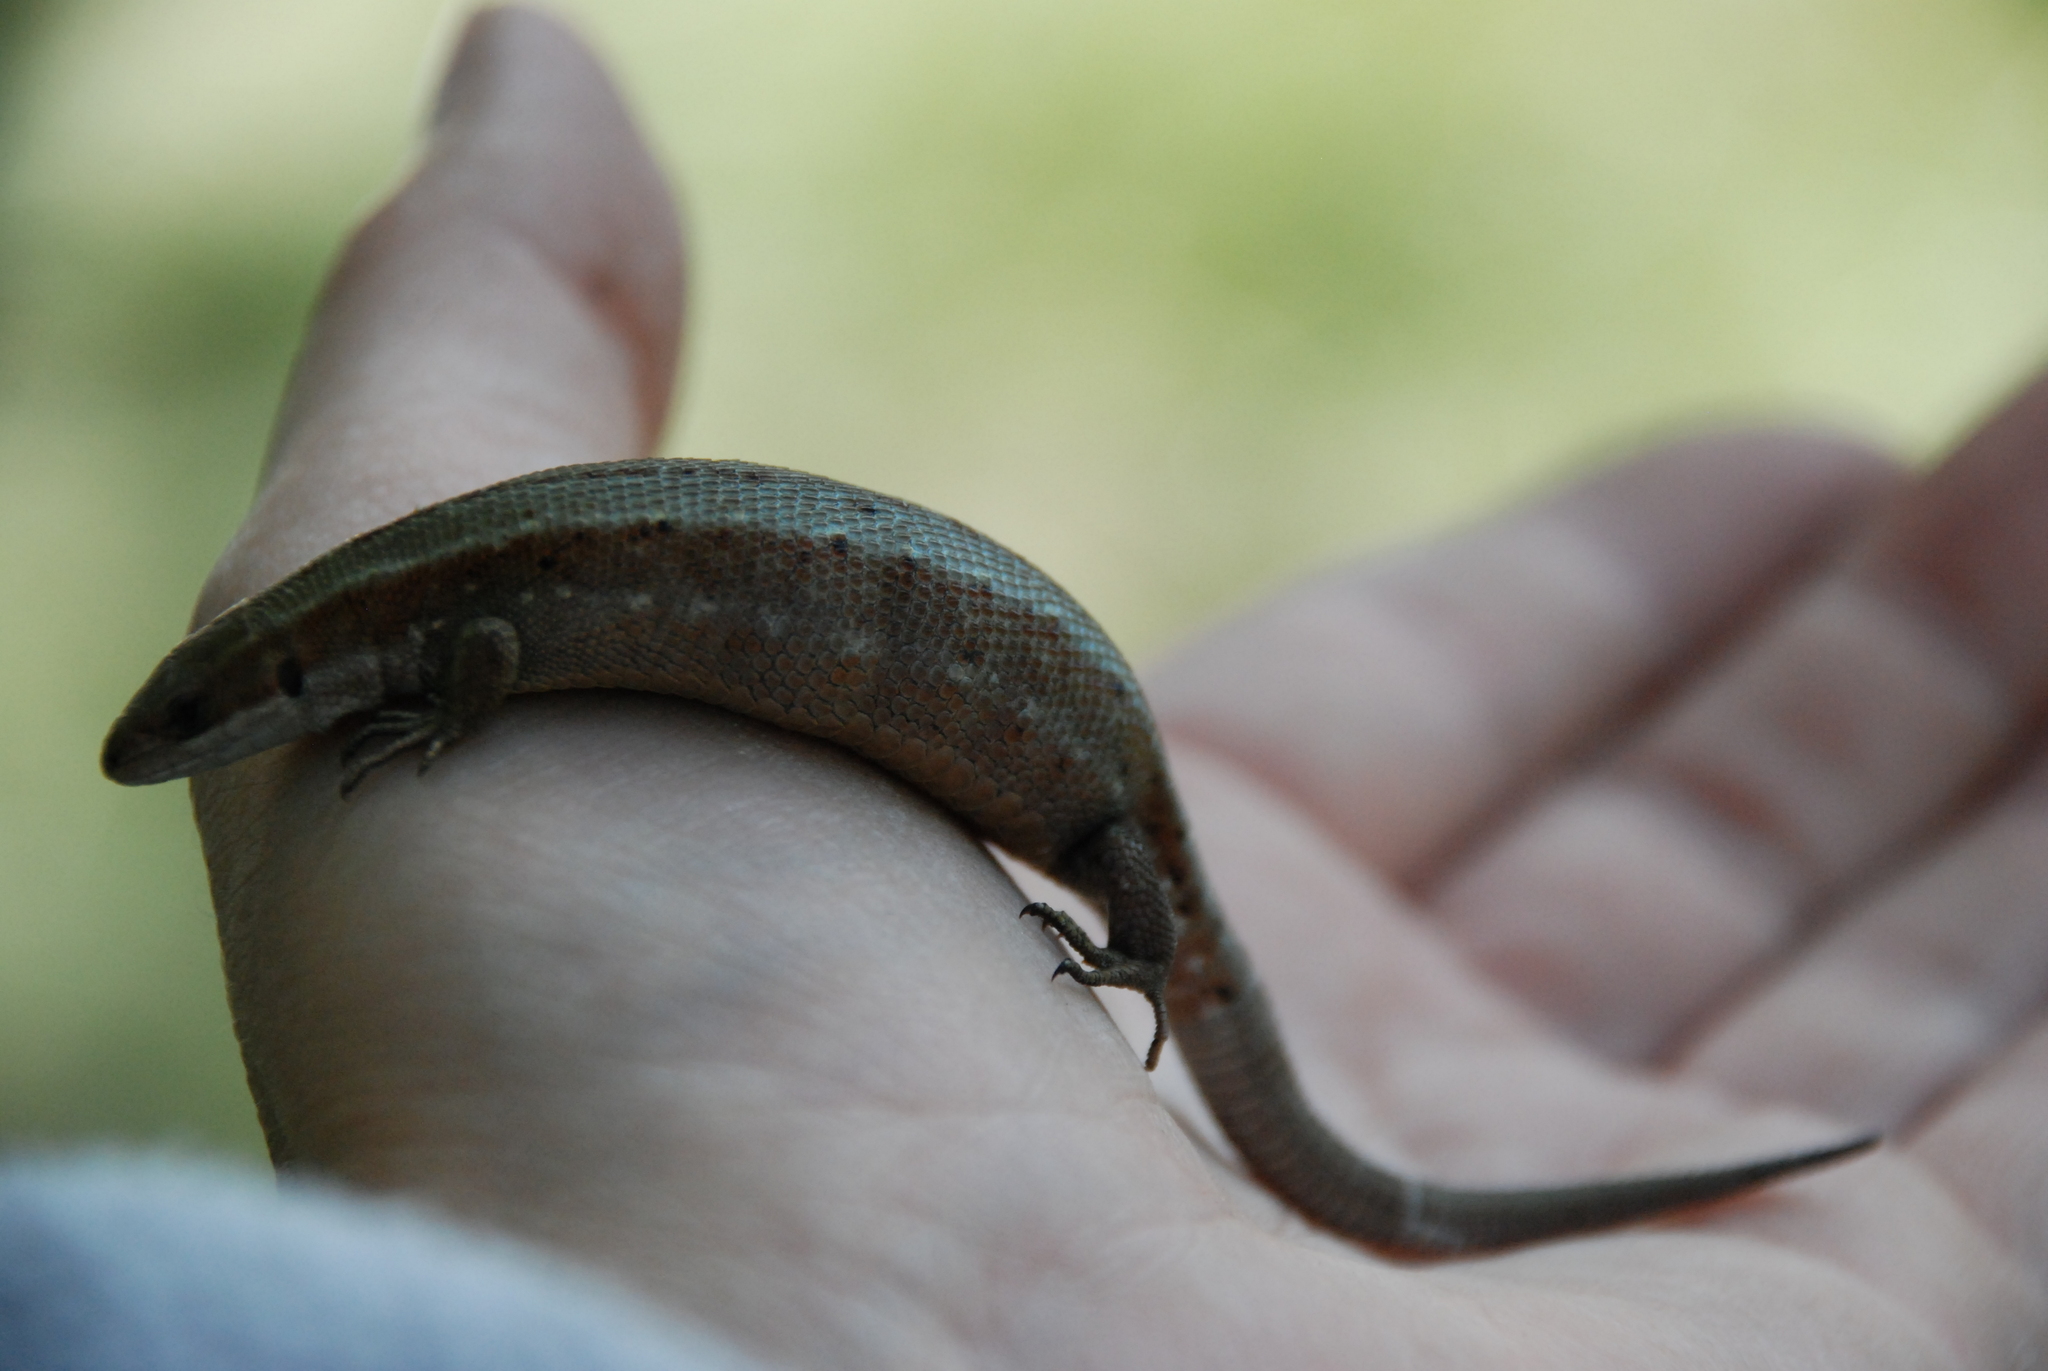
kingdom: Animalia
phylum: Chordata
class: Squamata
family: Lacertidae
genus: Zootoca
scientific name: Zootoca vivipara
